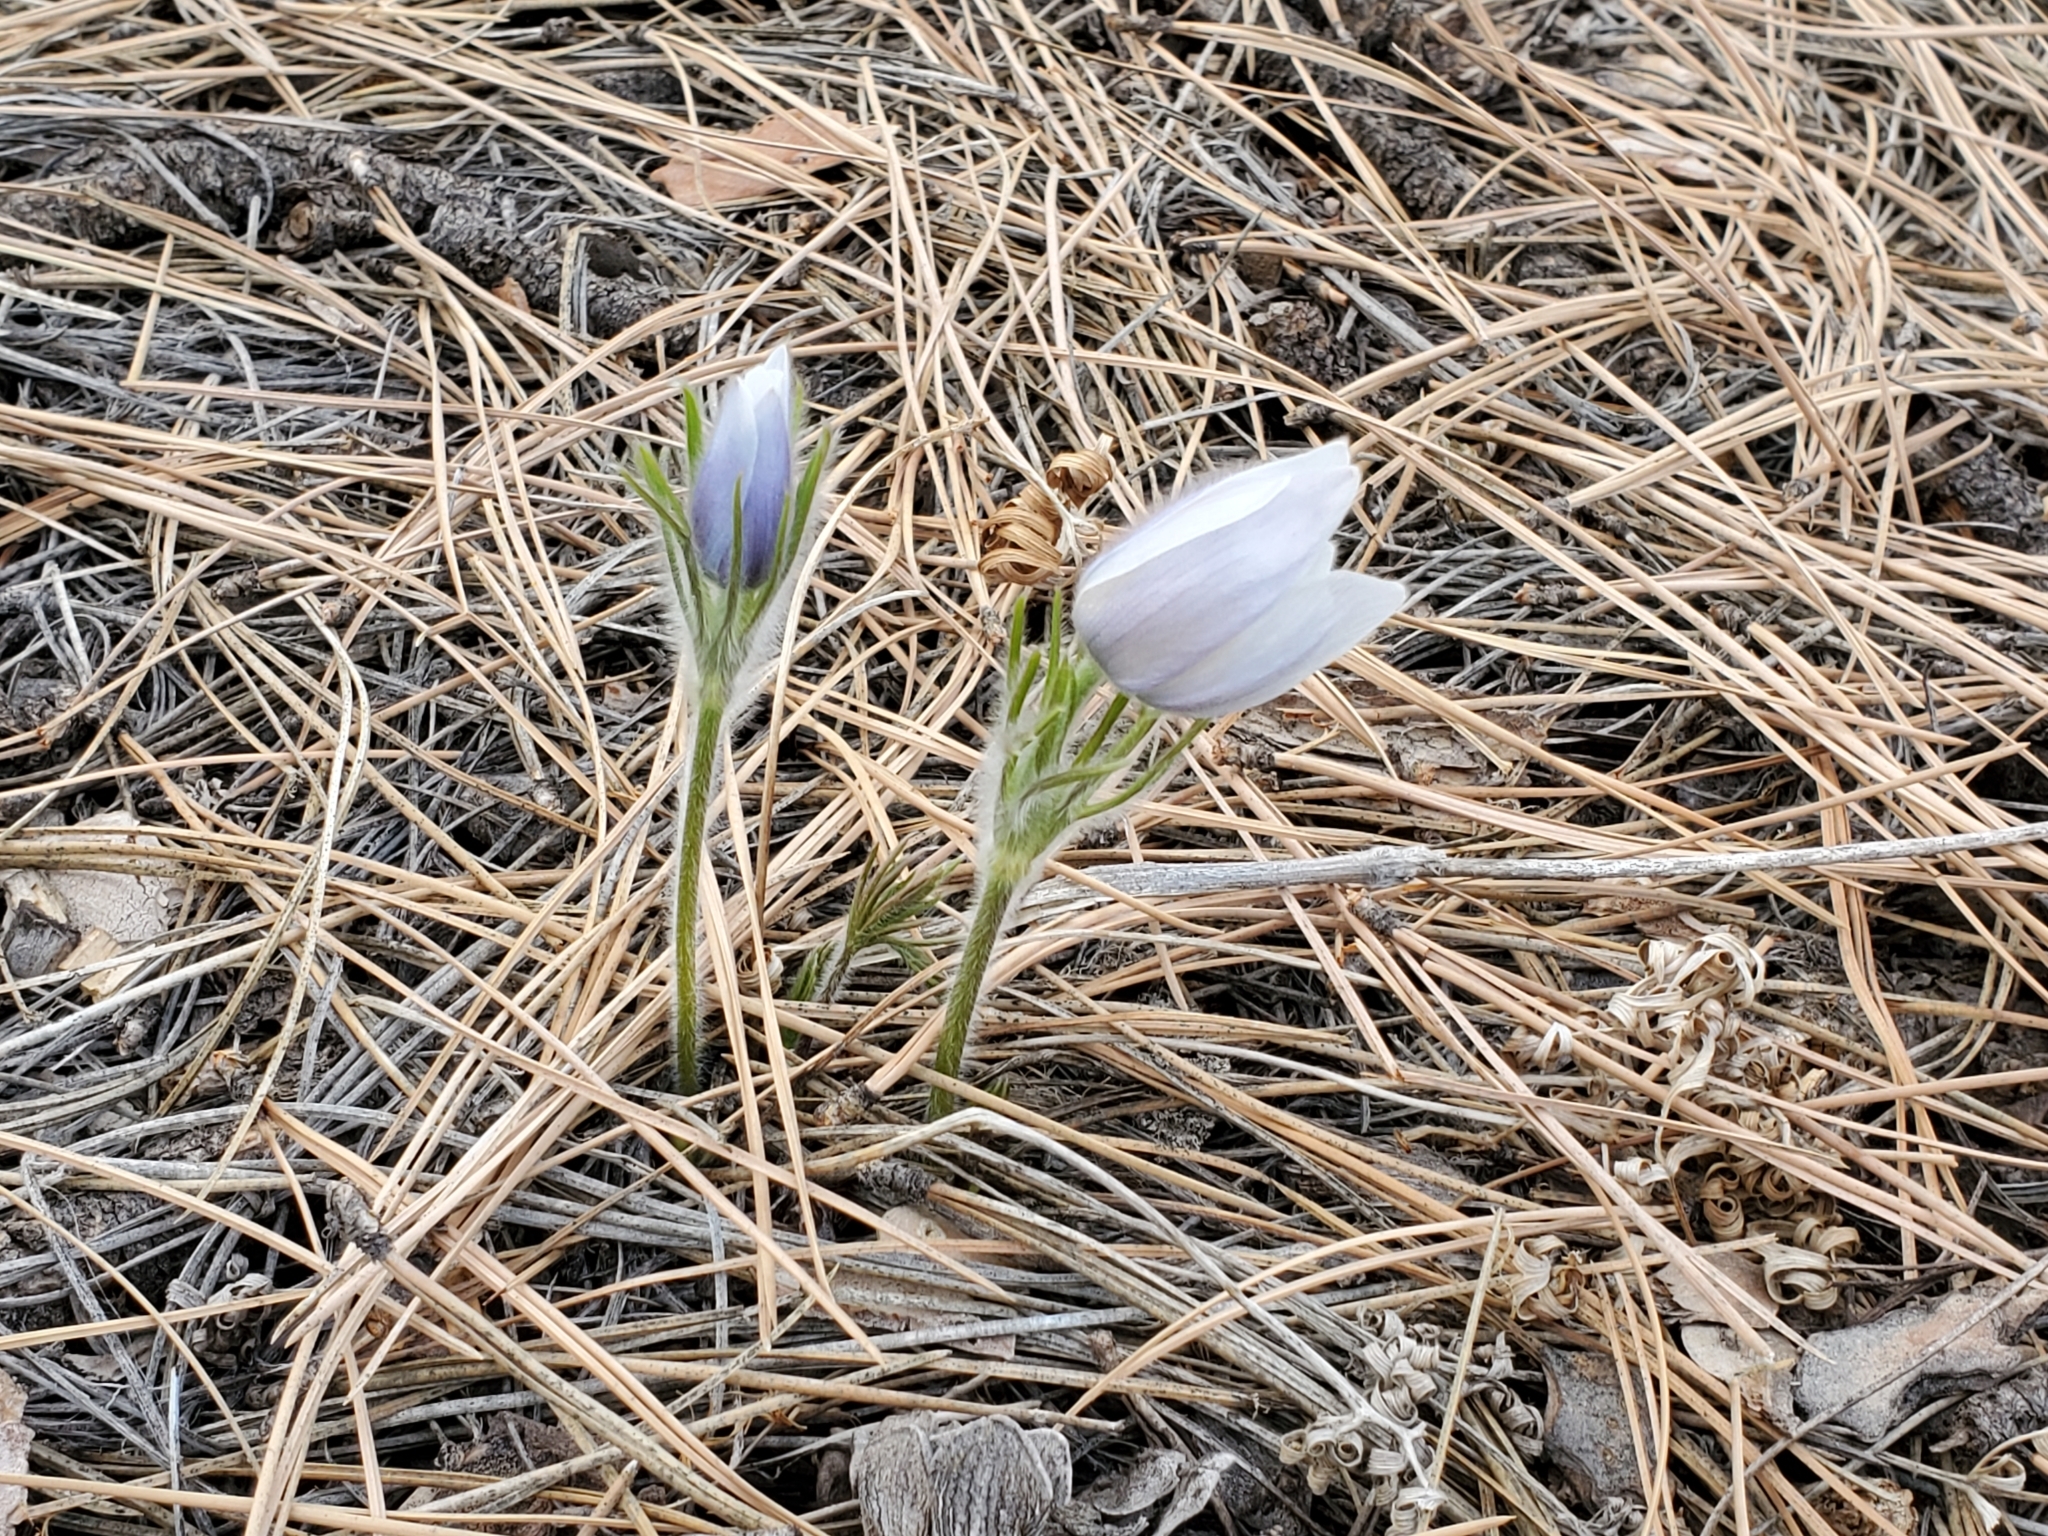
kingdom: Plantae
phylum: Tracheophyta
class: Magnoliopsida
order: Ranunculales
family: Ranunculaceae
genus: Pulsatilla
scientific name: Pulsatilla nuttalliana
